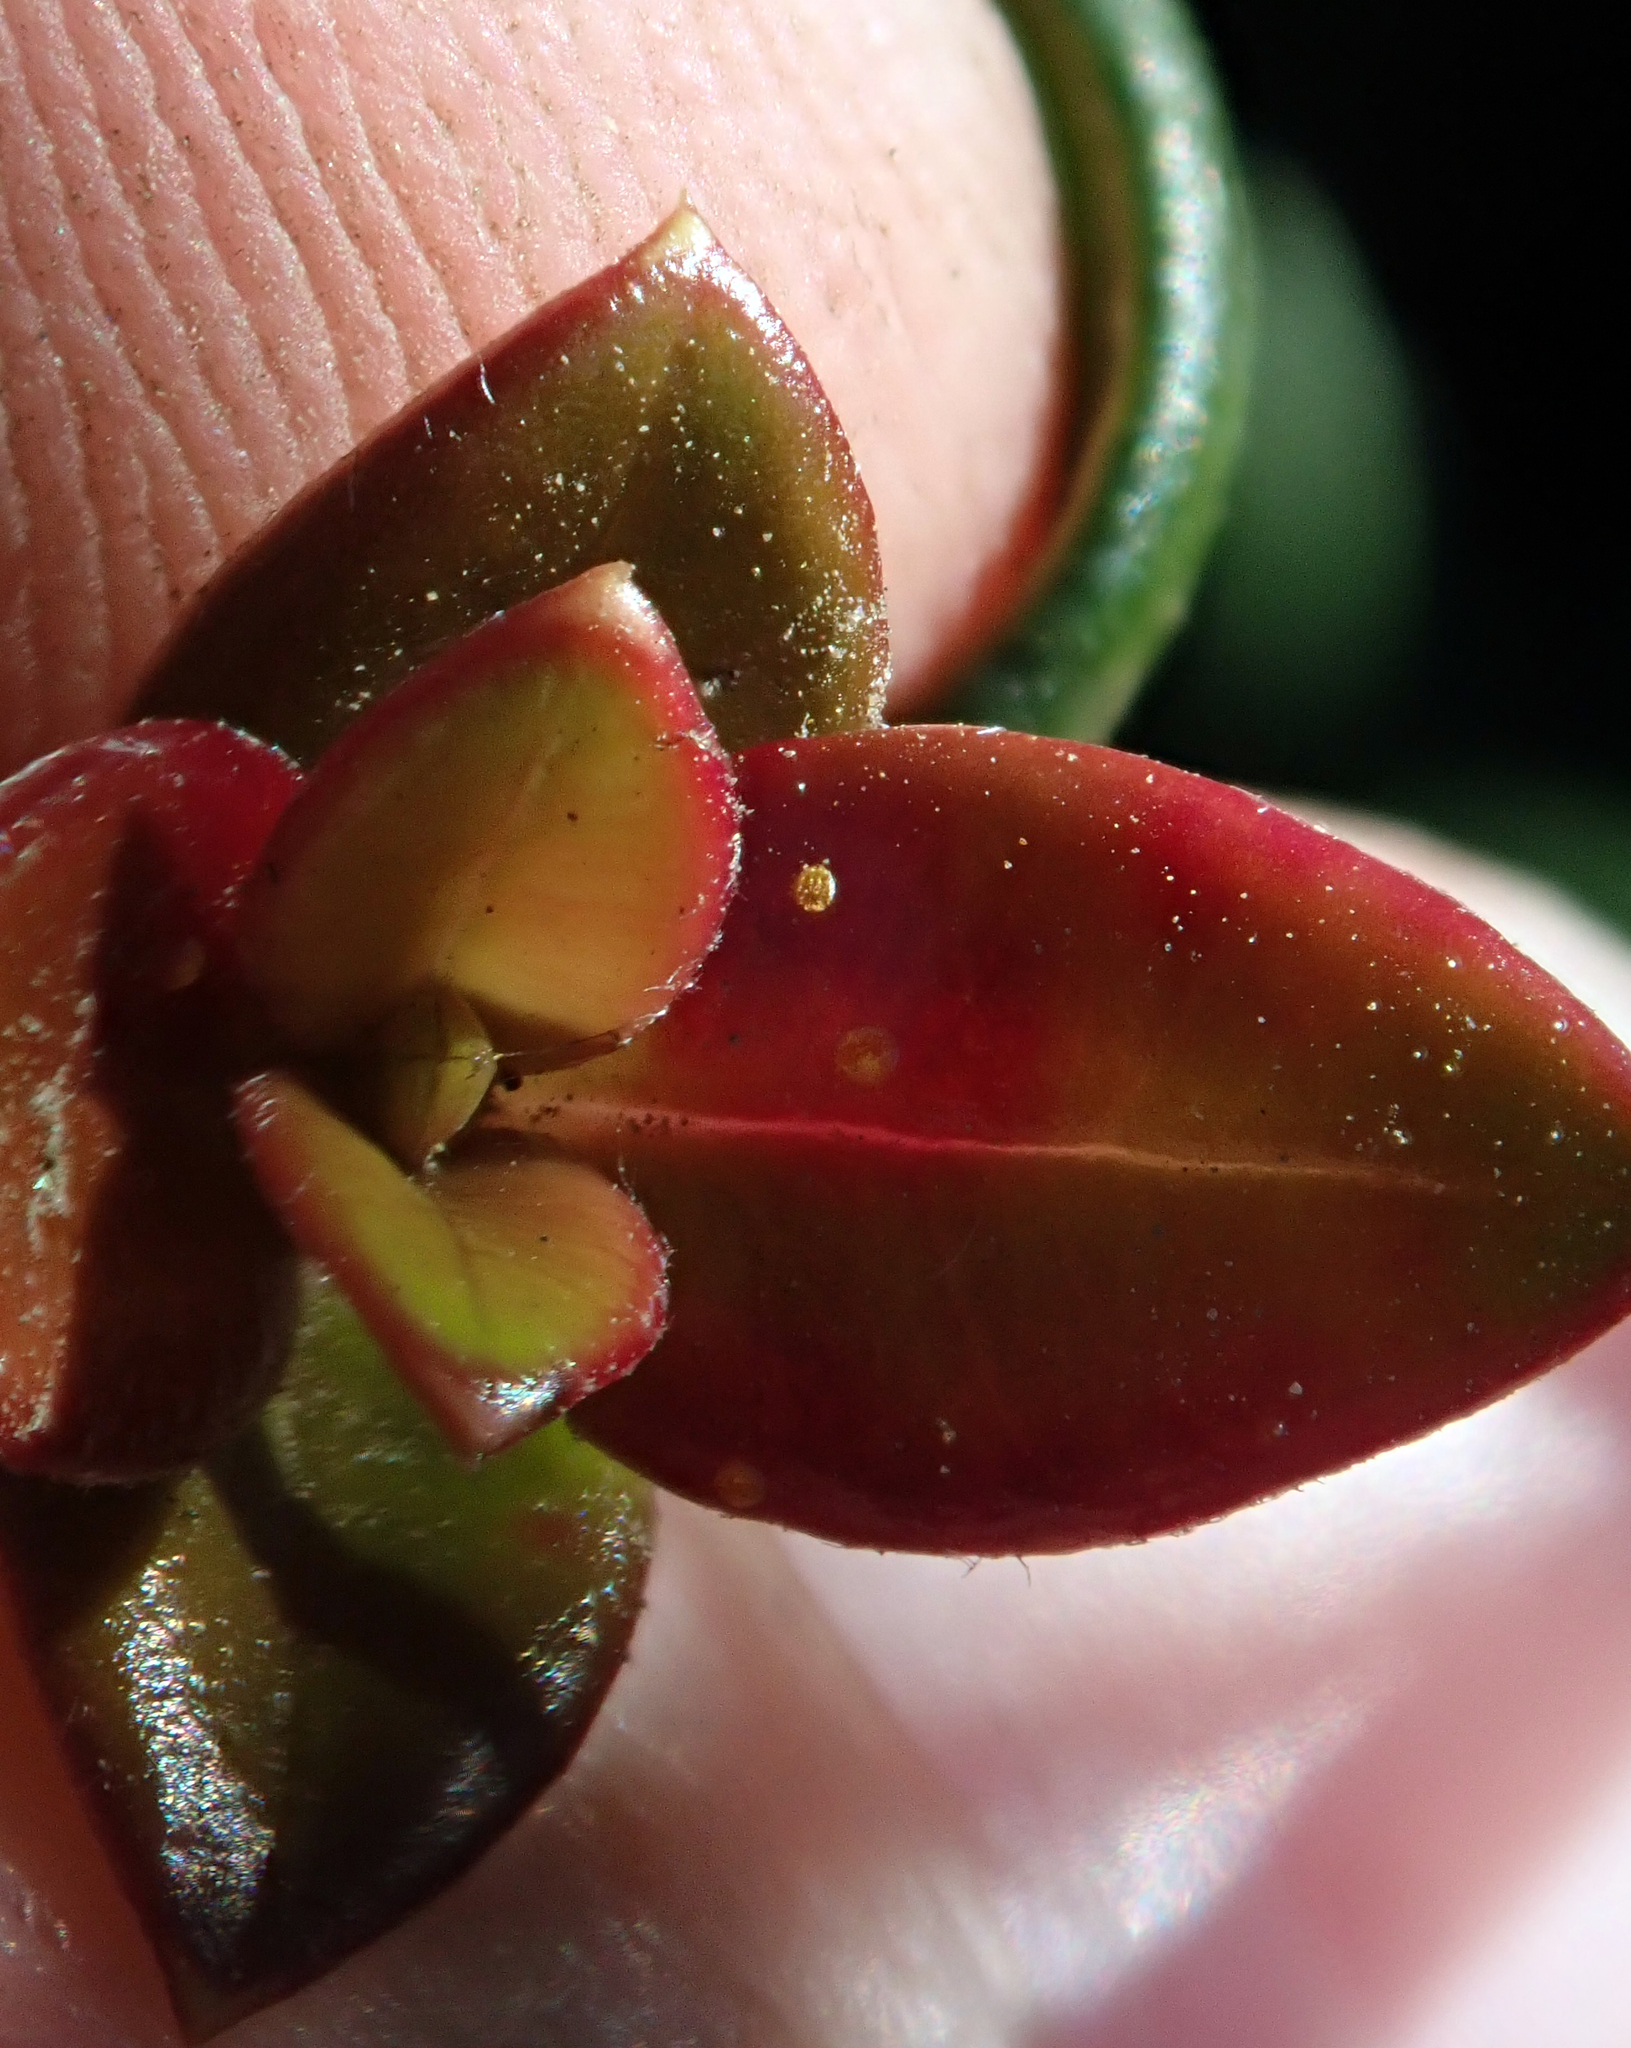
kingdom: Fungi
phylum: Basidiomycota
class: Pucciniomycetes
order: Pucciniales
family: Sphaerophragmiaceae
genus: Austropuccinia
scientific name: Austropuccinia psidii
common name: Myrtle rust
